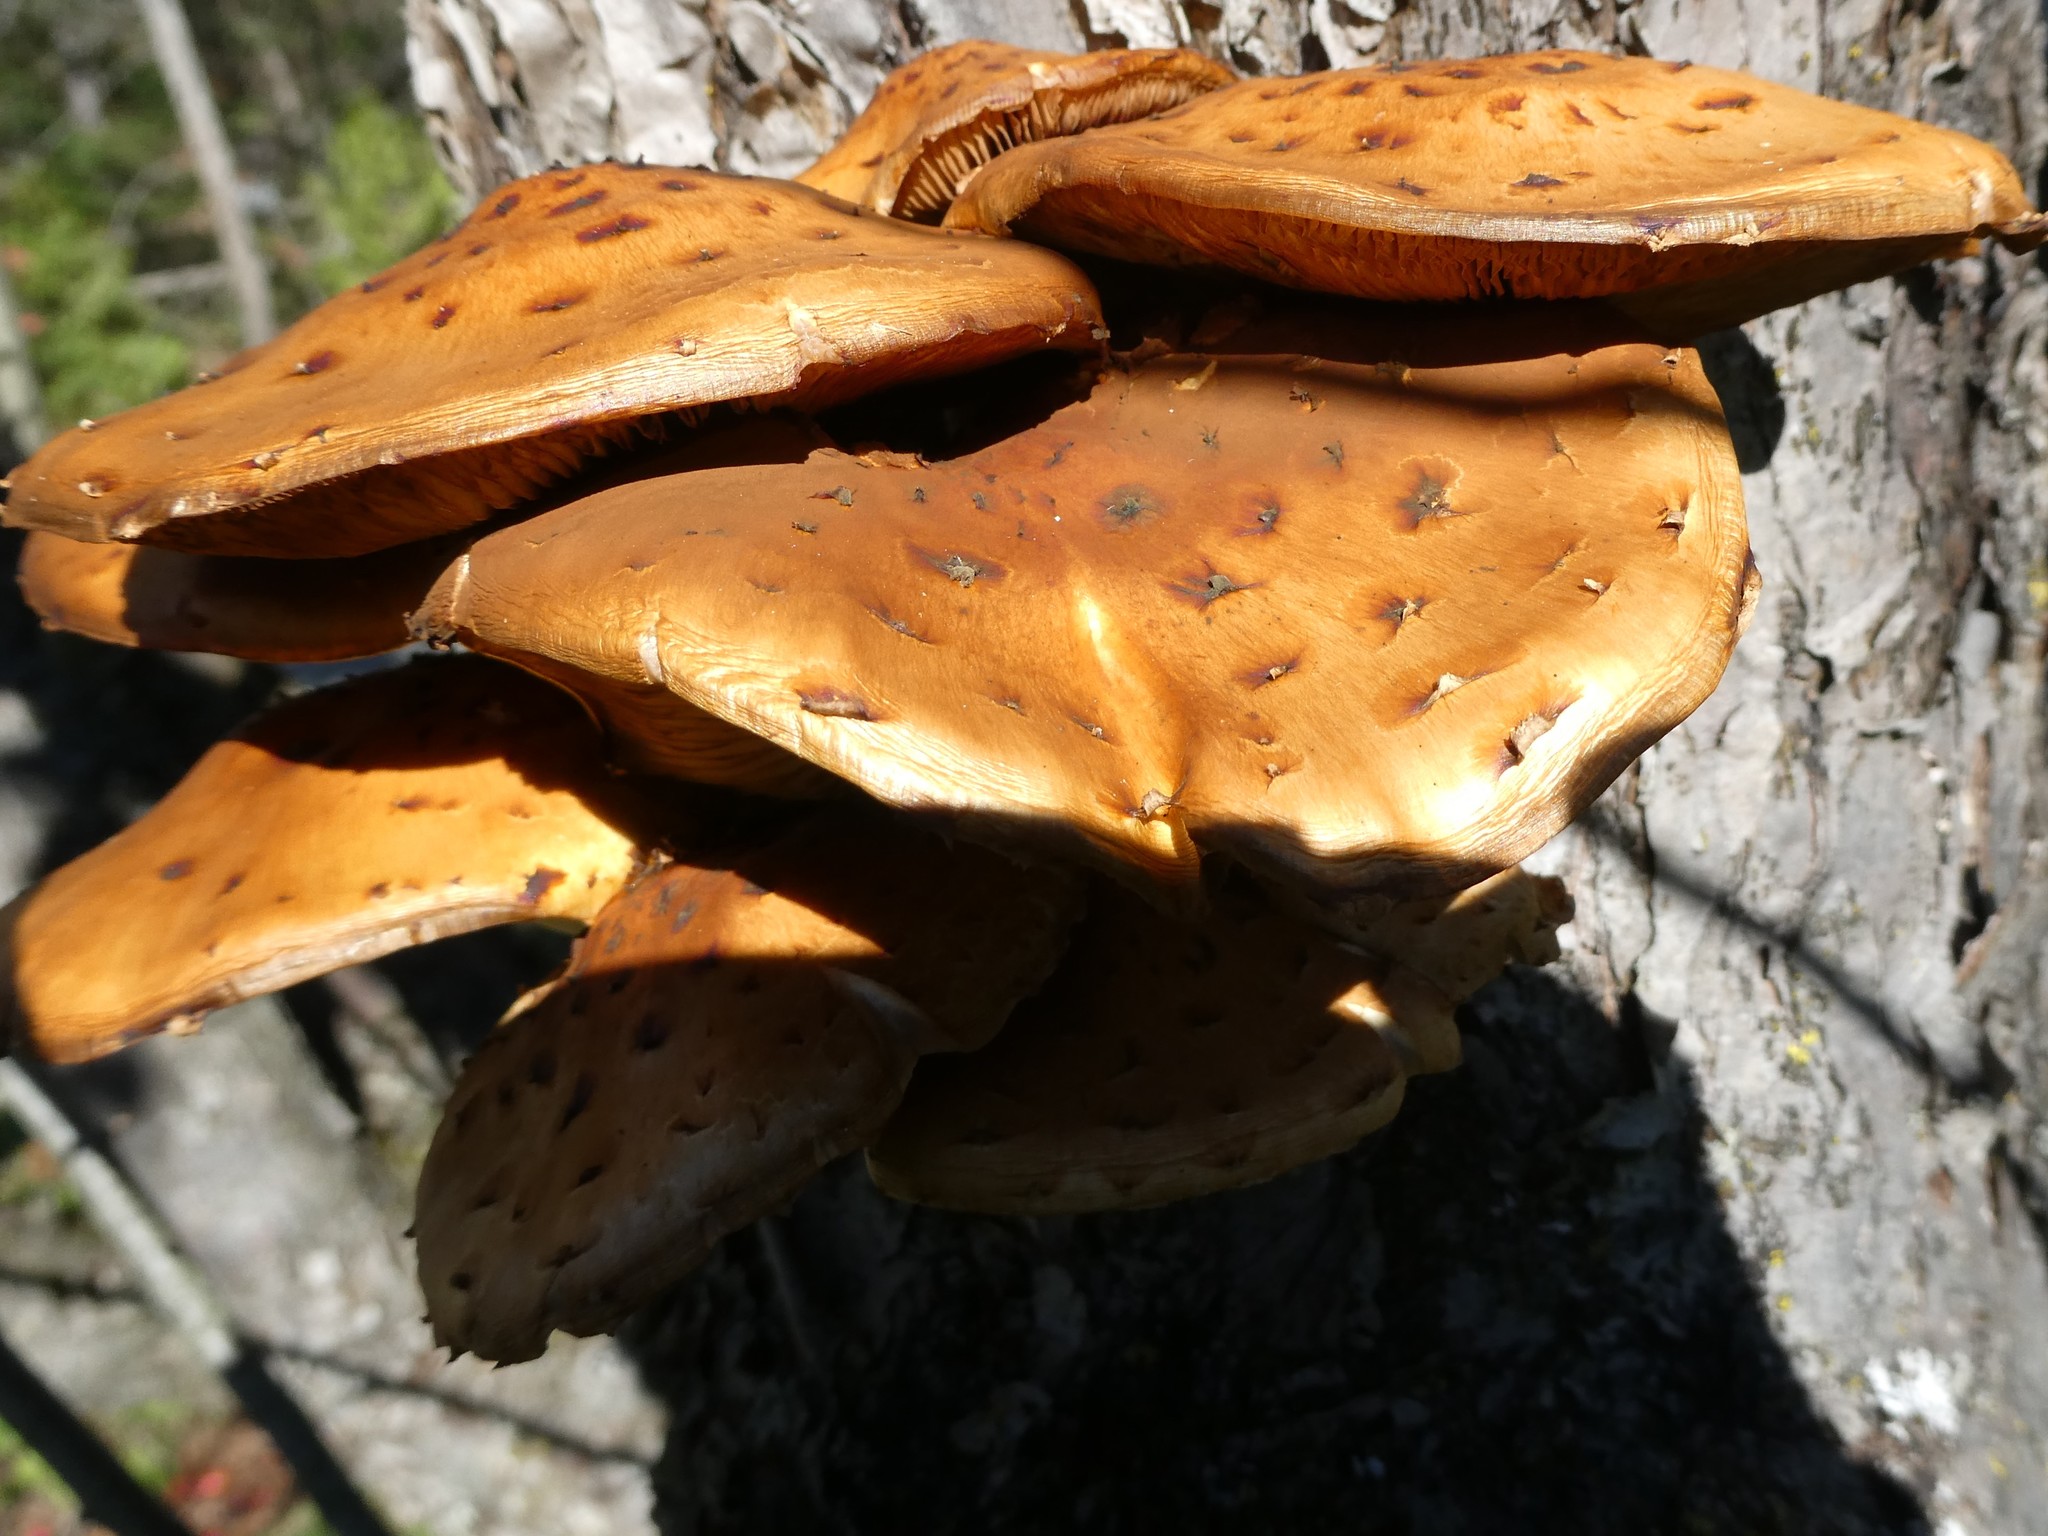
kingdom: Fungi
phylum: Basidiomycota
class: Agaricomycetes
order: Agaricales
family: Strophariaceae
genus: Pholiota
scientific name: Pholiota
